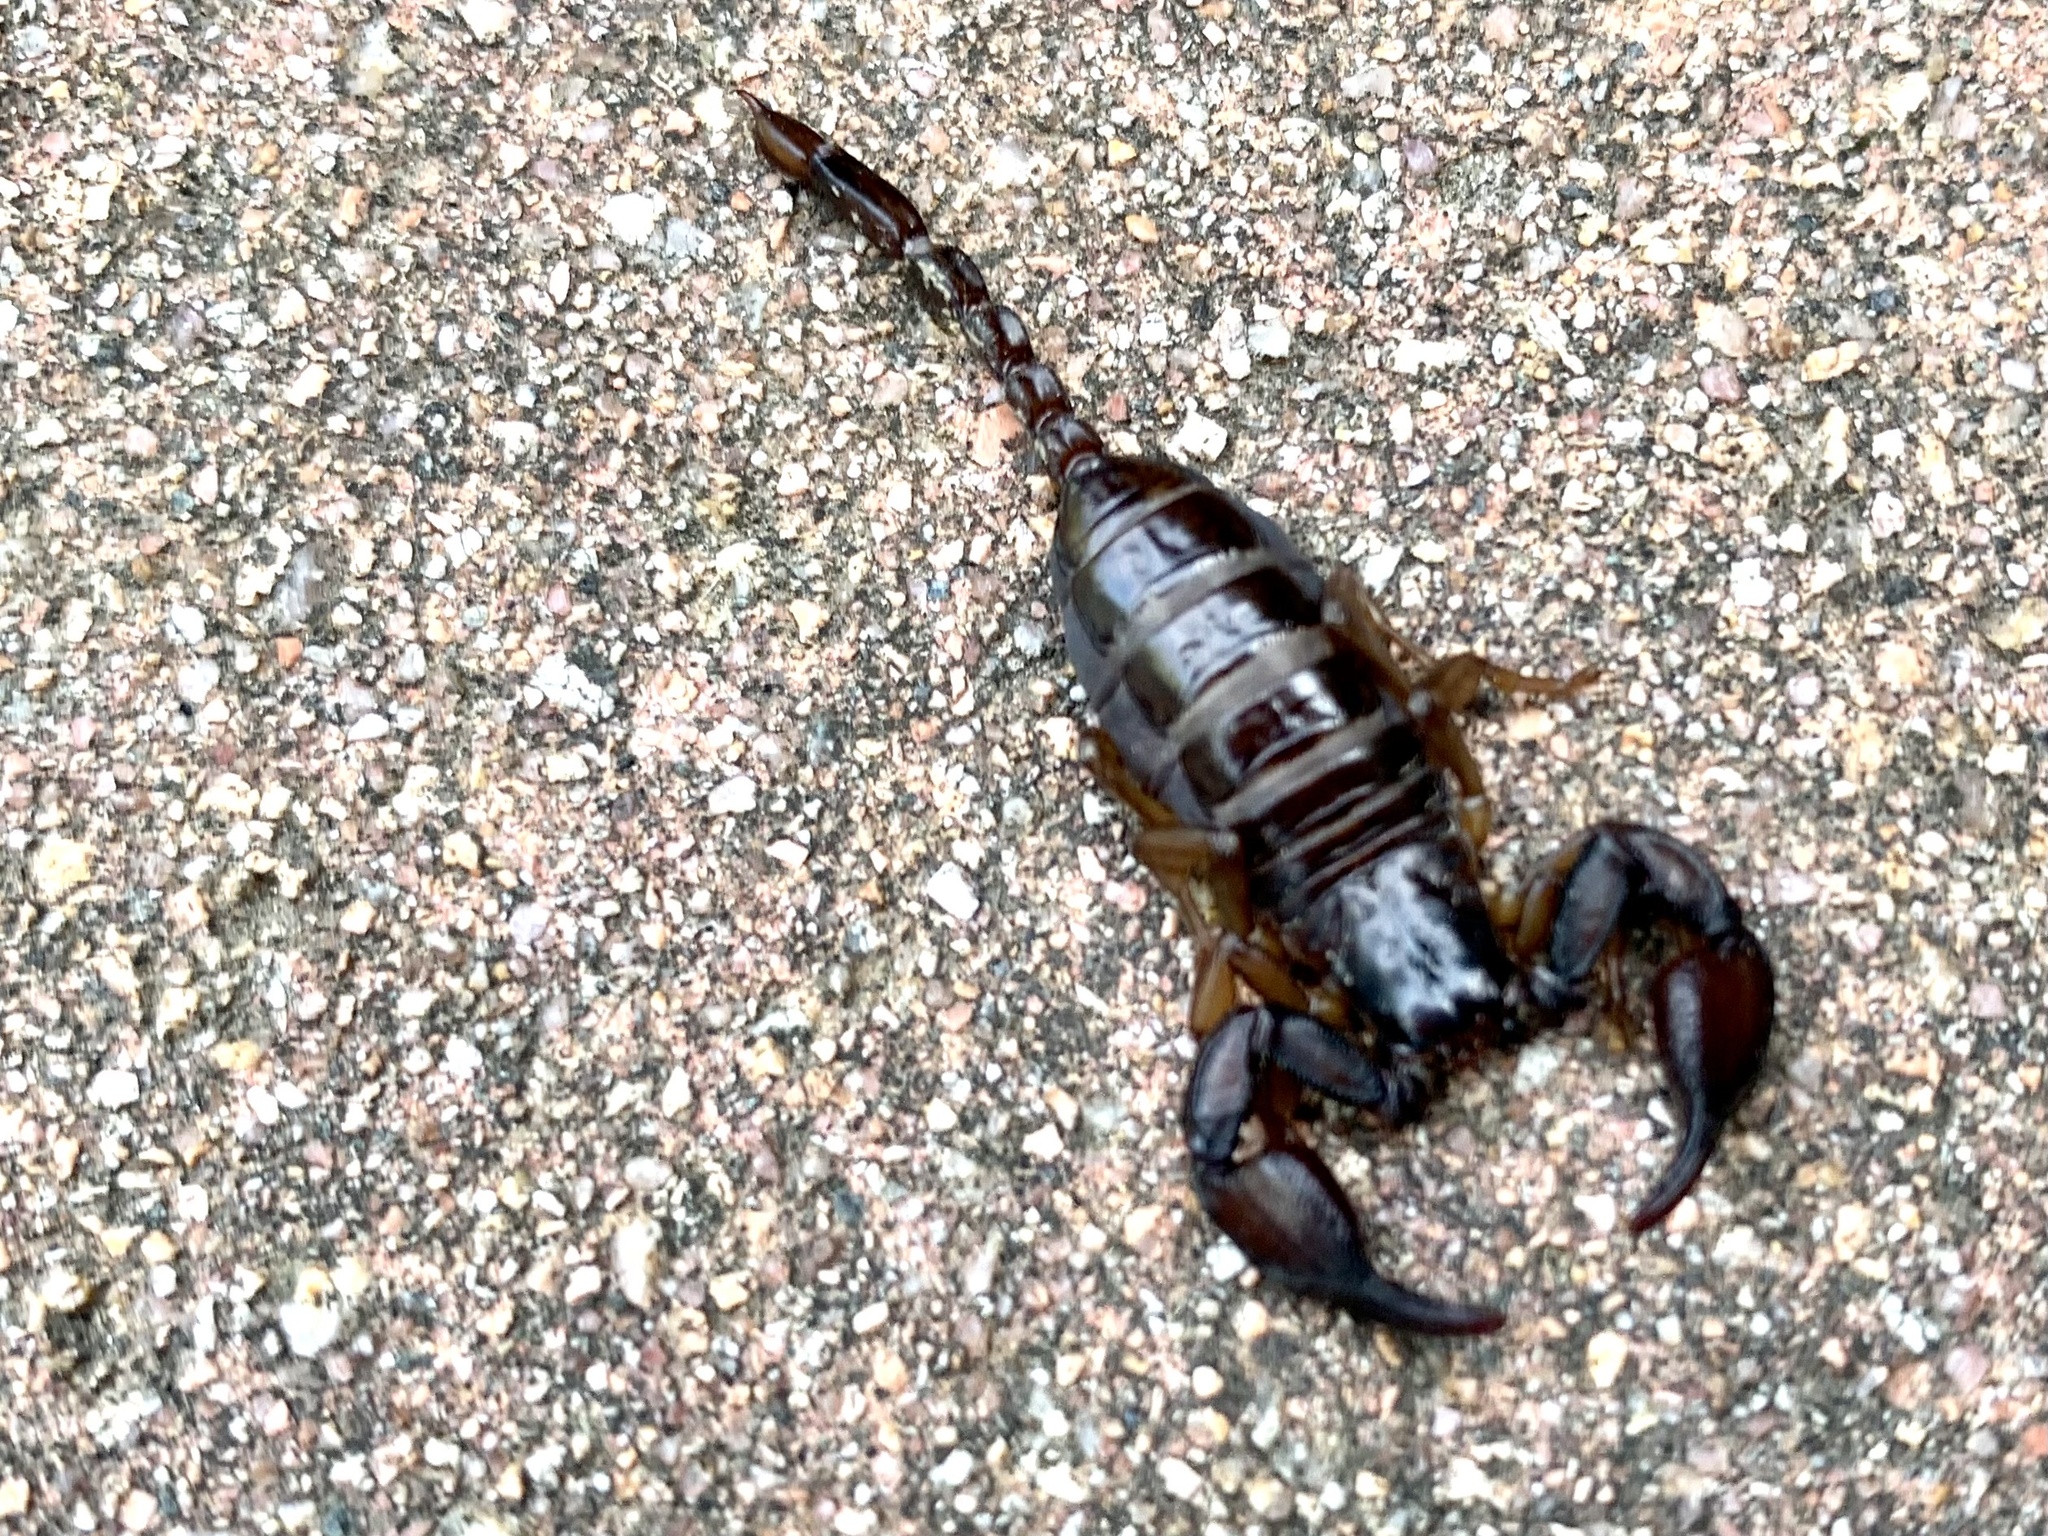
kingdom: Animalia
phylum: Arthropoda
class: Arachnida
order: Scorpiones
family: Euscorpiidae
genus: Euscorpius
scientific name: Euscorpius
